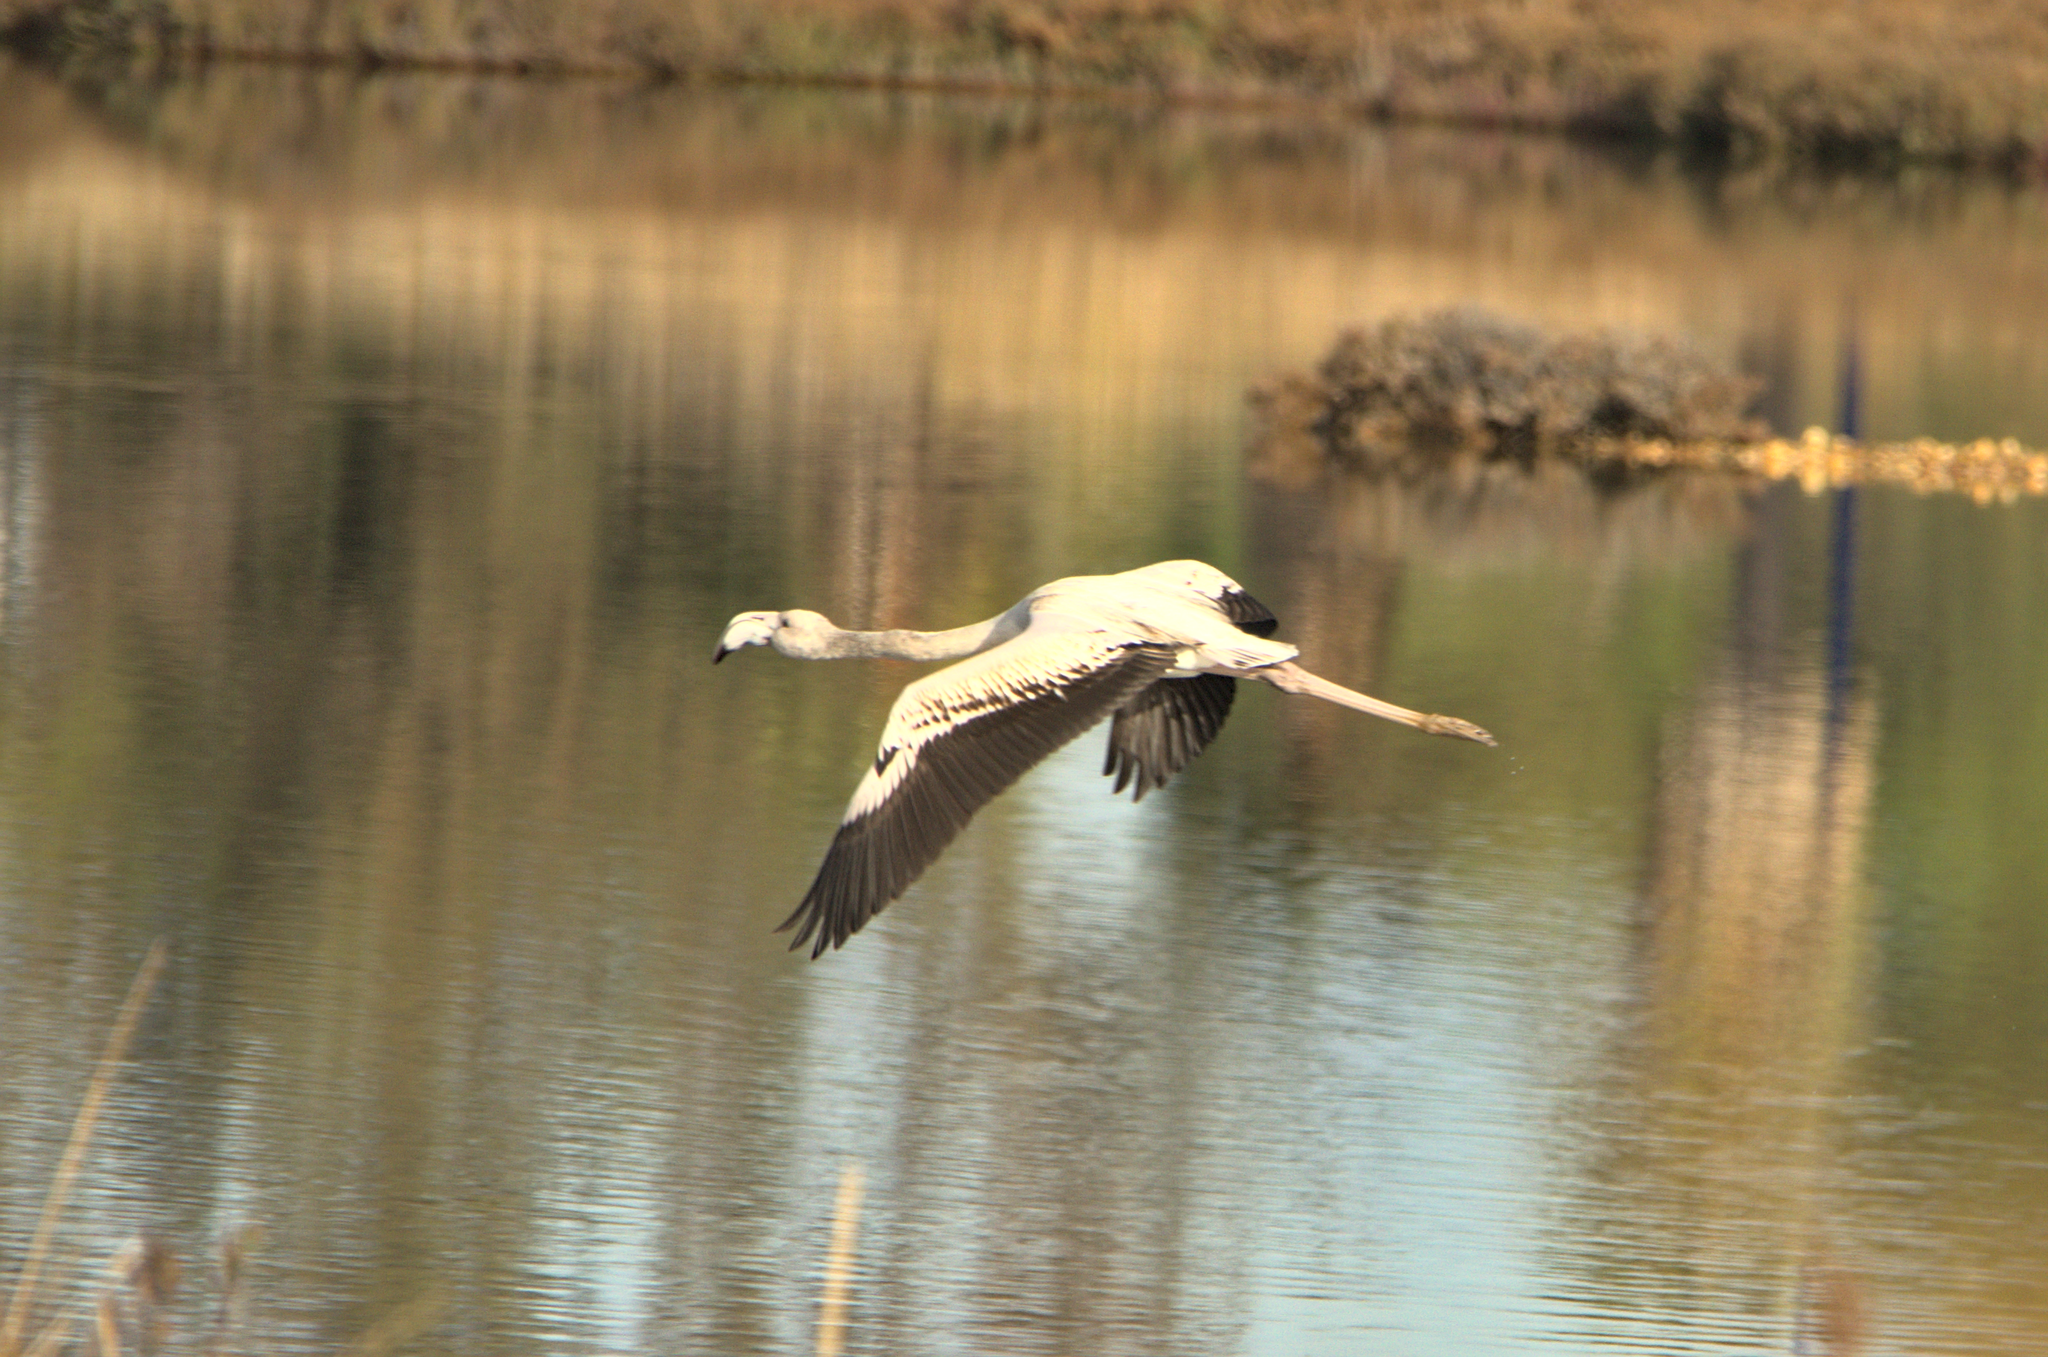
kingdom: Animalia
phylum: Chordata
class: Aves
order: Phoenicopteriformes
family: Phoenicopteridae
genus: Phoenicopterus
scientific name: Phoenicopterus roseus
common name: Greater flamingo
